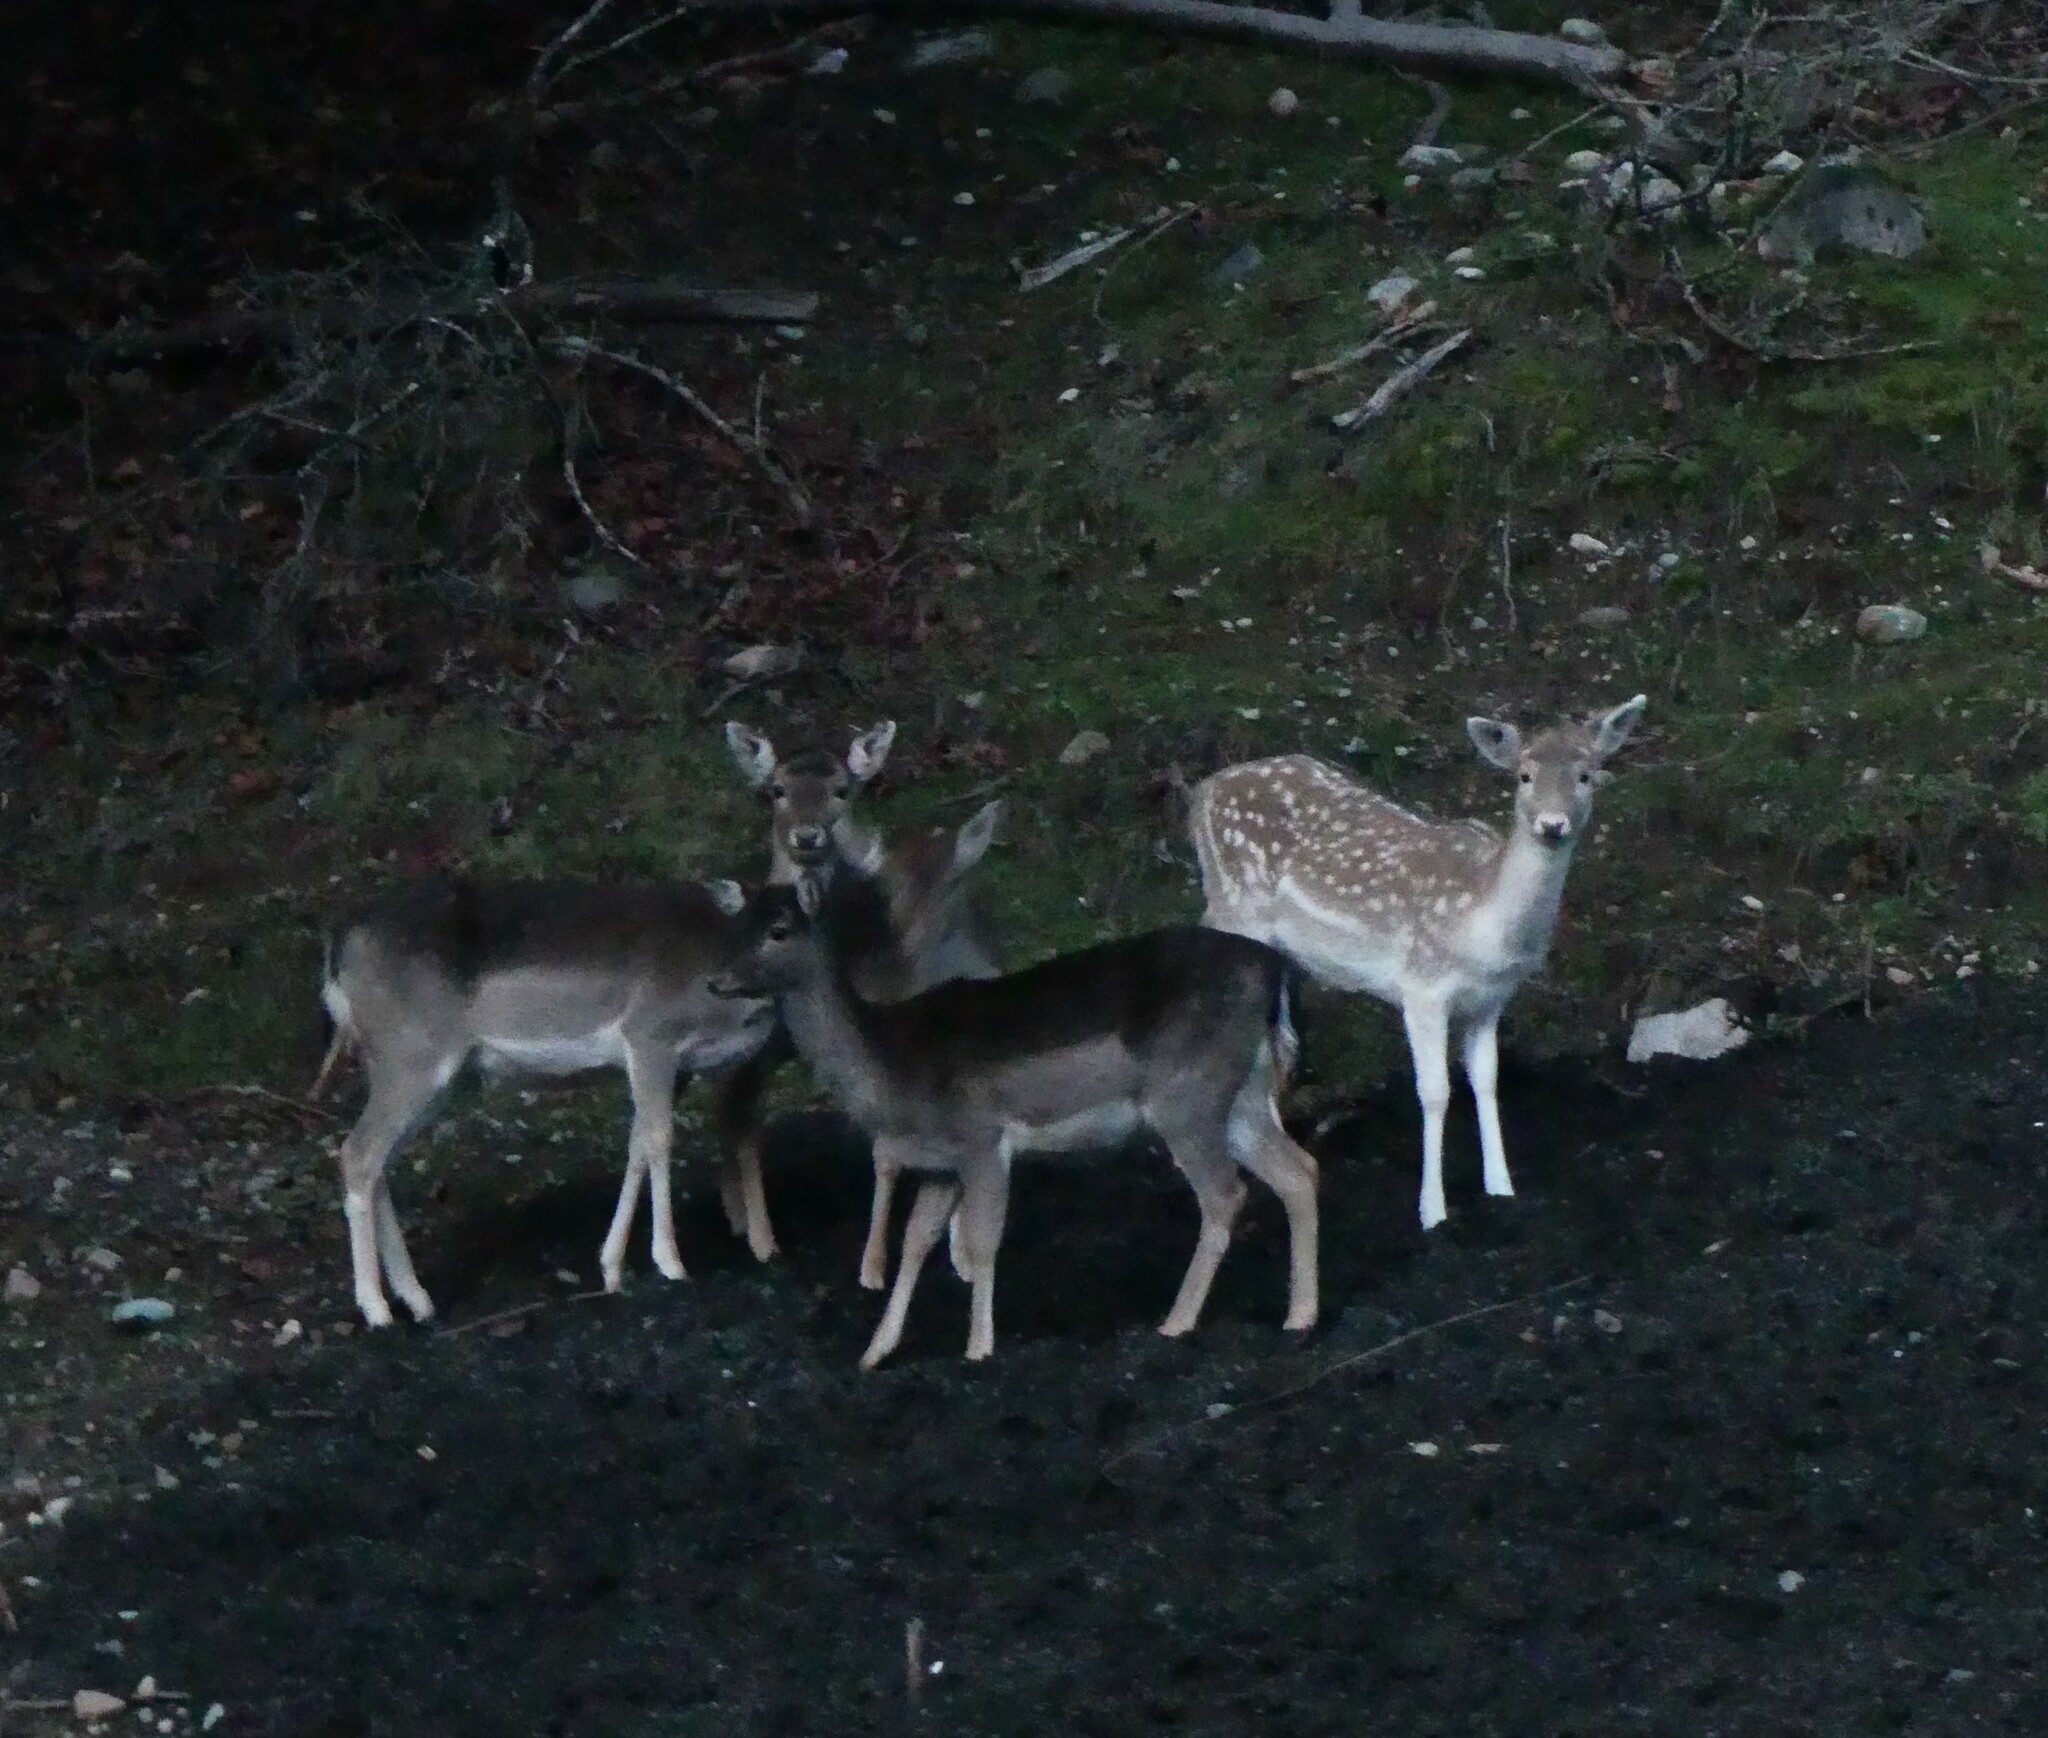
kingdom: Animalia
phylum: Chordata
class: Mammalia
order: Artiodactyla
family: Cervidae
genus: Dama
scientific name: Dama dama
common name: Fallow deer
